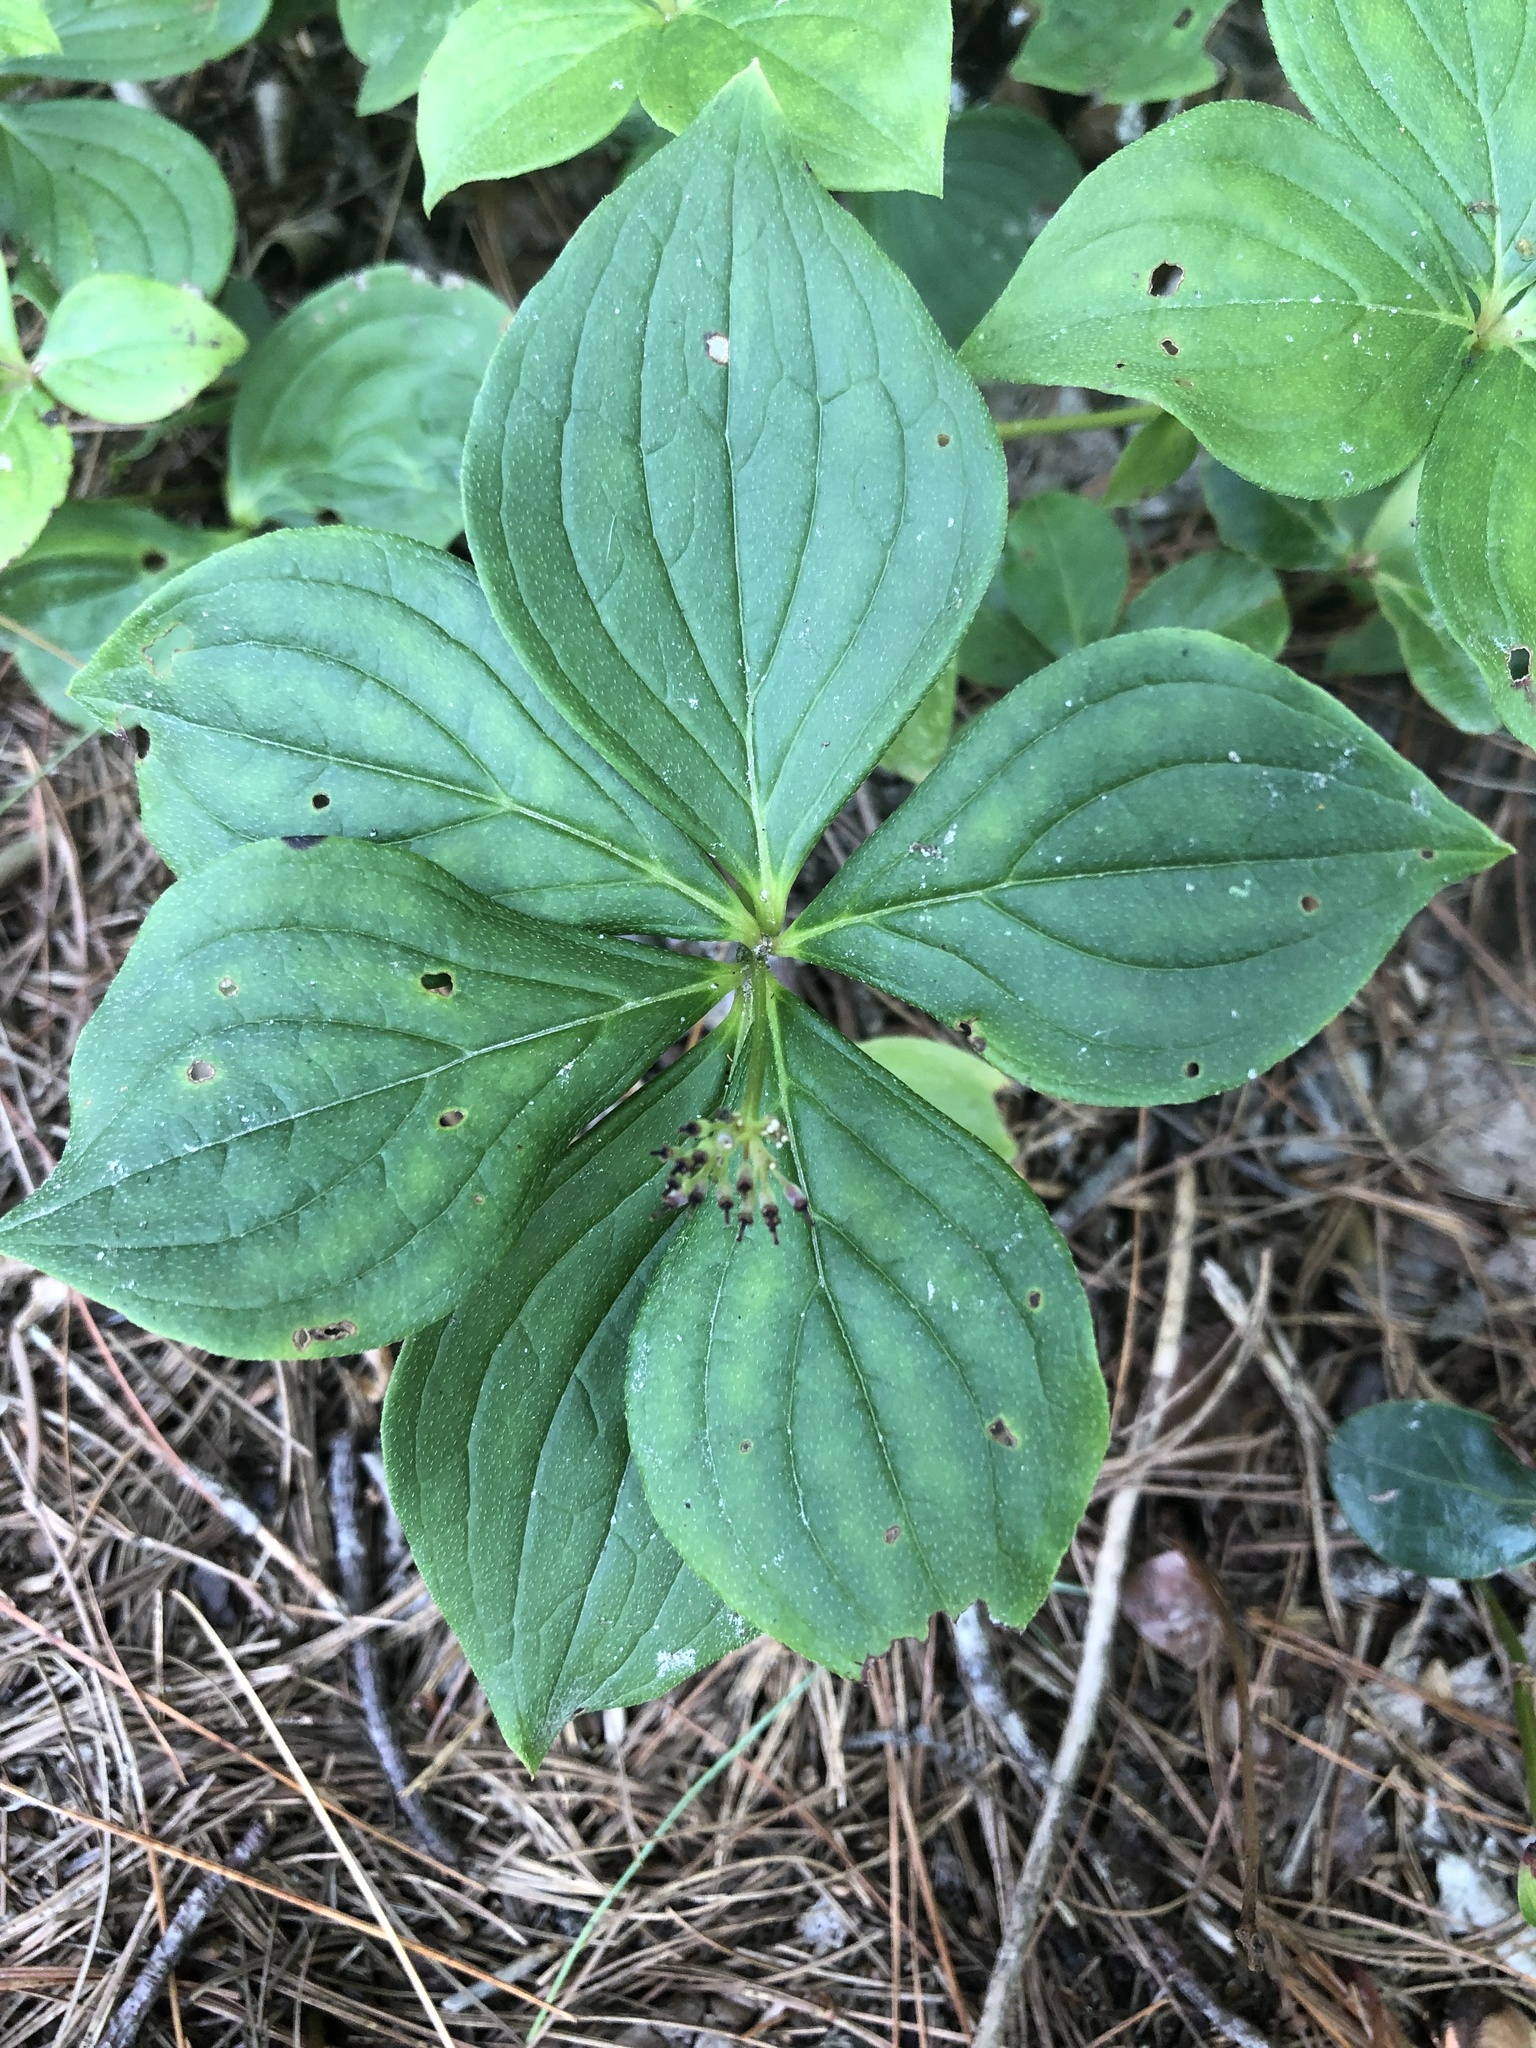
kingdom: Plantae
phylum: Tracheophyta
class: Magnoliopsida
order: Cornales
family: Cornaceae
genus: Cornus
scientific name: Cornus canadensis
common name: Creeping dogwood
